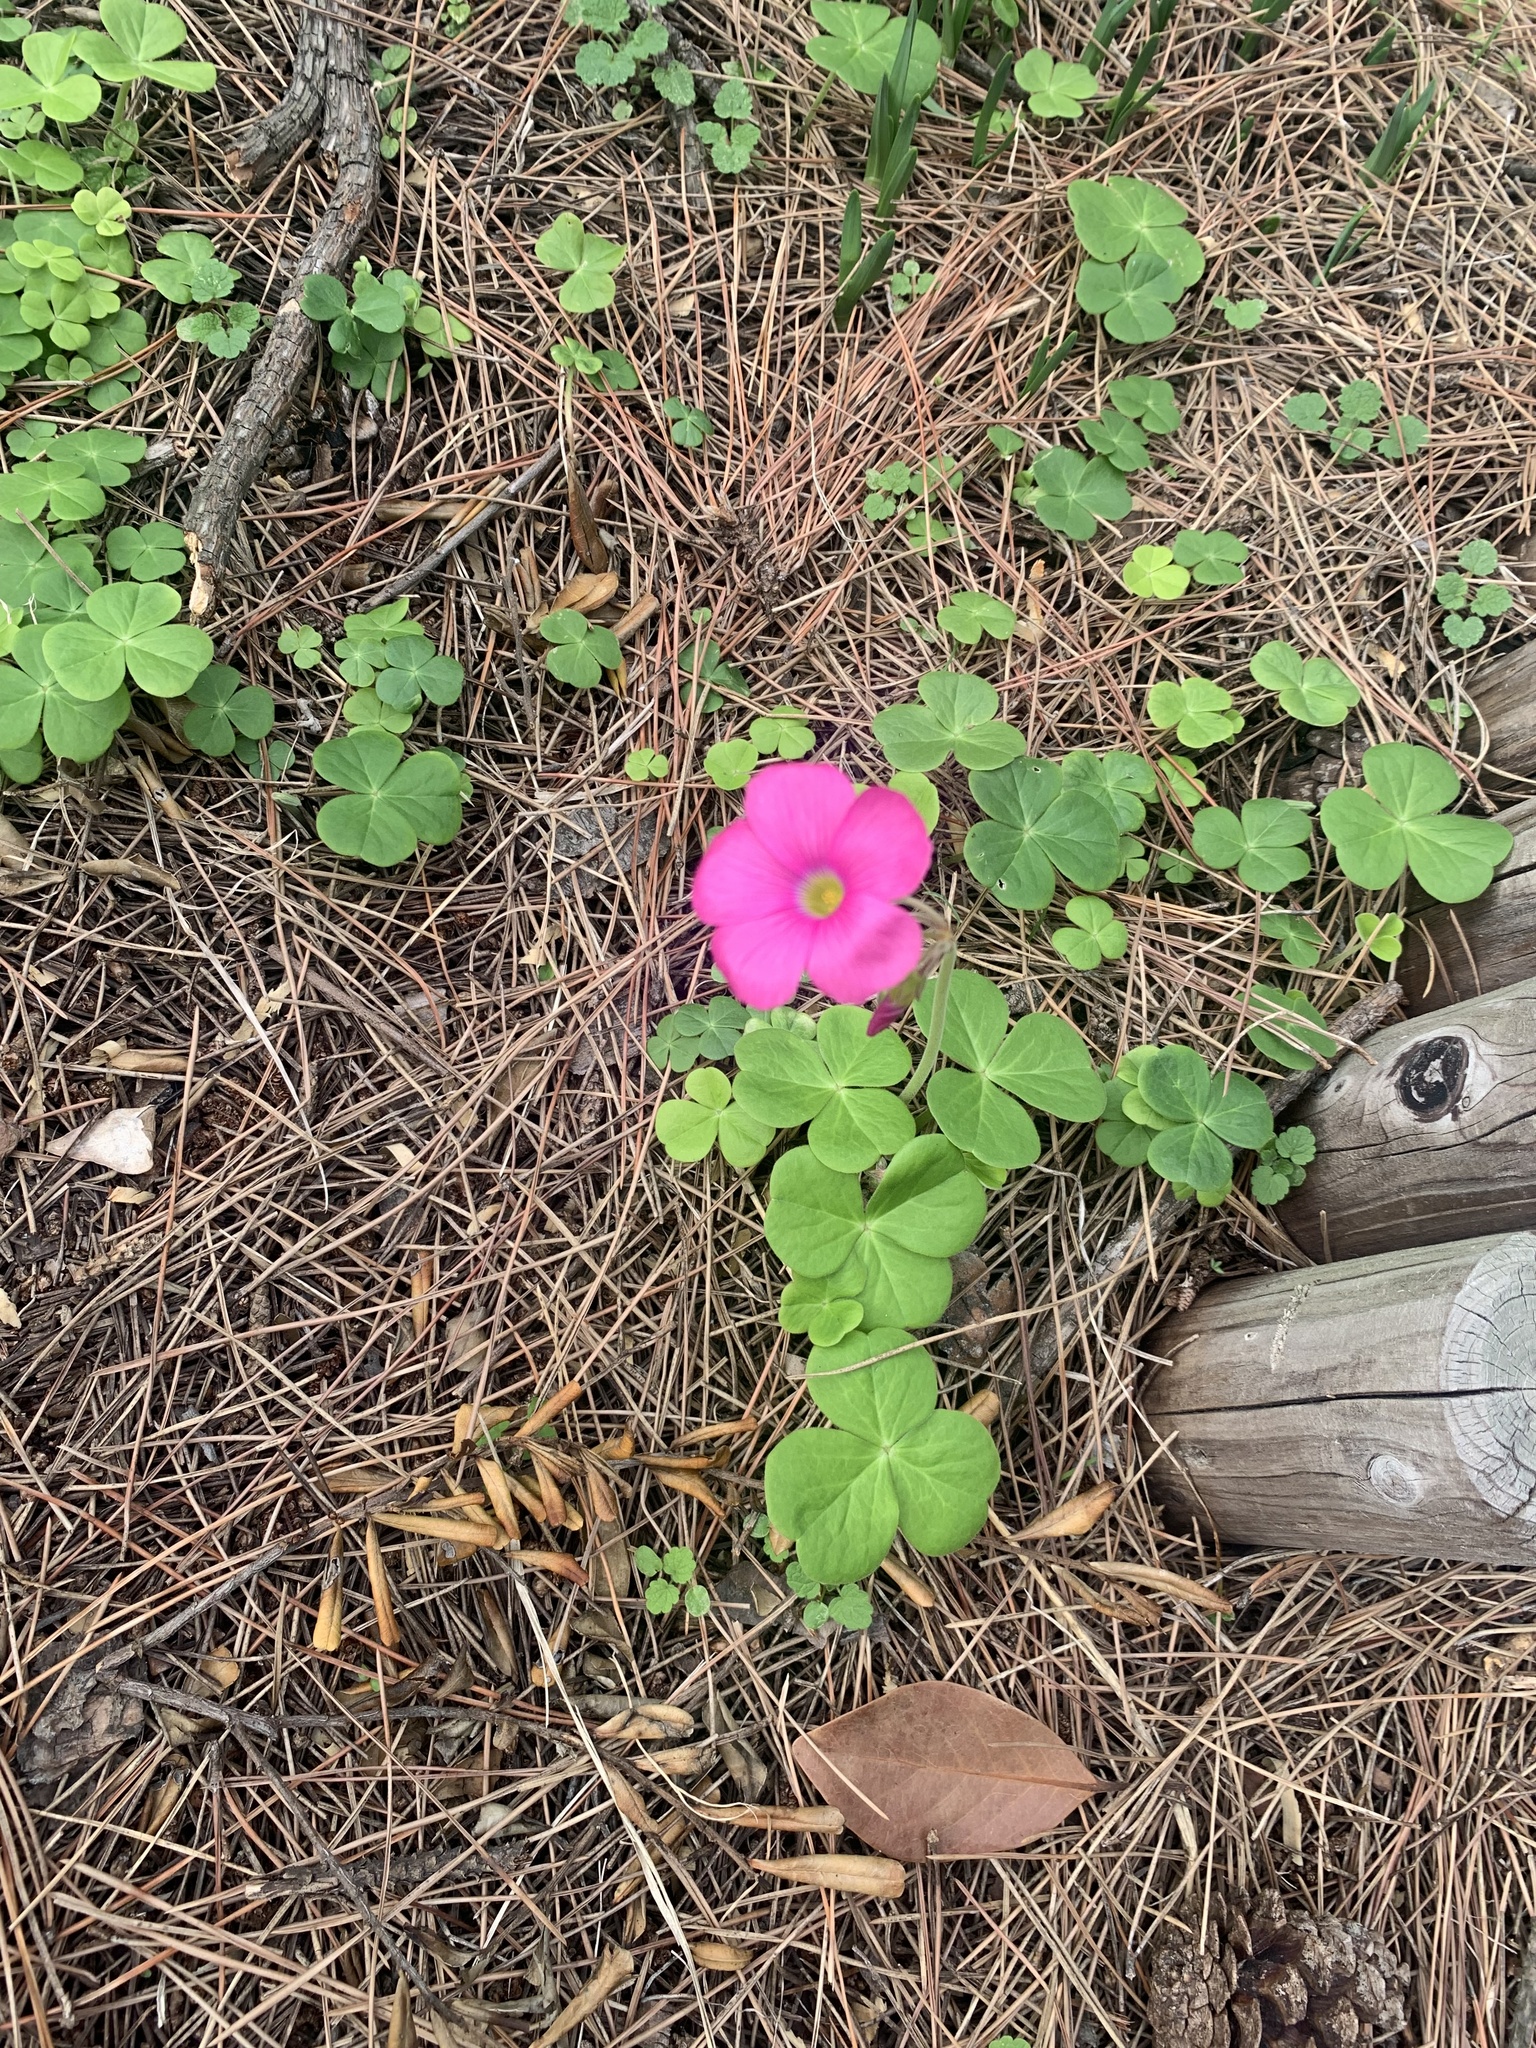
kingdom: Plantae
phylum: Tracheophyta
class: Magnoliopsida
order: Oxalidales
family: Oxalidaceae
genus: Oxalis
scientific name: Oxalis bowiei
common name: Bowie's wood-sorrel
